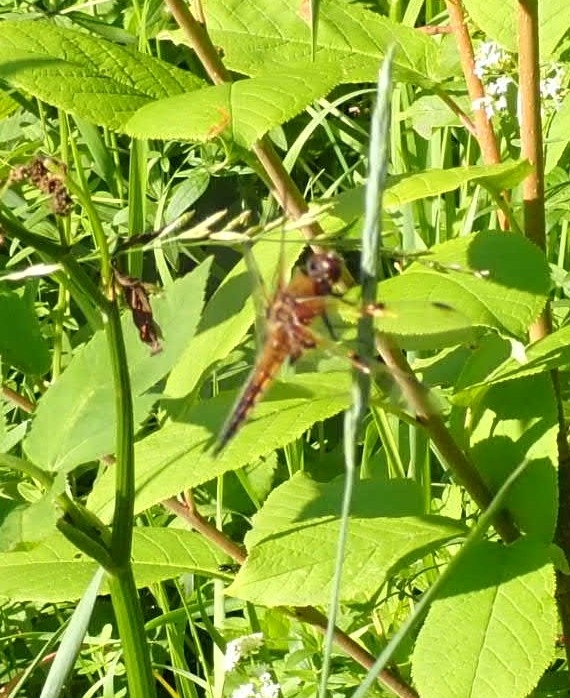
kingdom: Animalia
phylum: Arthropoda
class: Insecta
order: Odonata
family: Libellulidae
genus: Libellula
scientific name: Libellula quadrimaculata
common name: Four-spotted chaser
